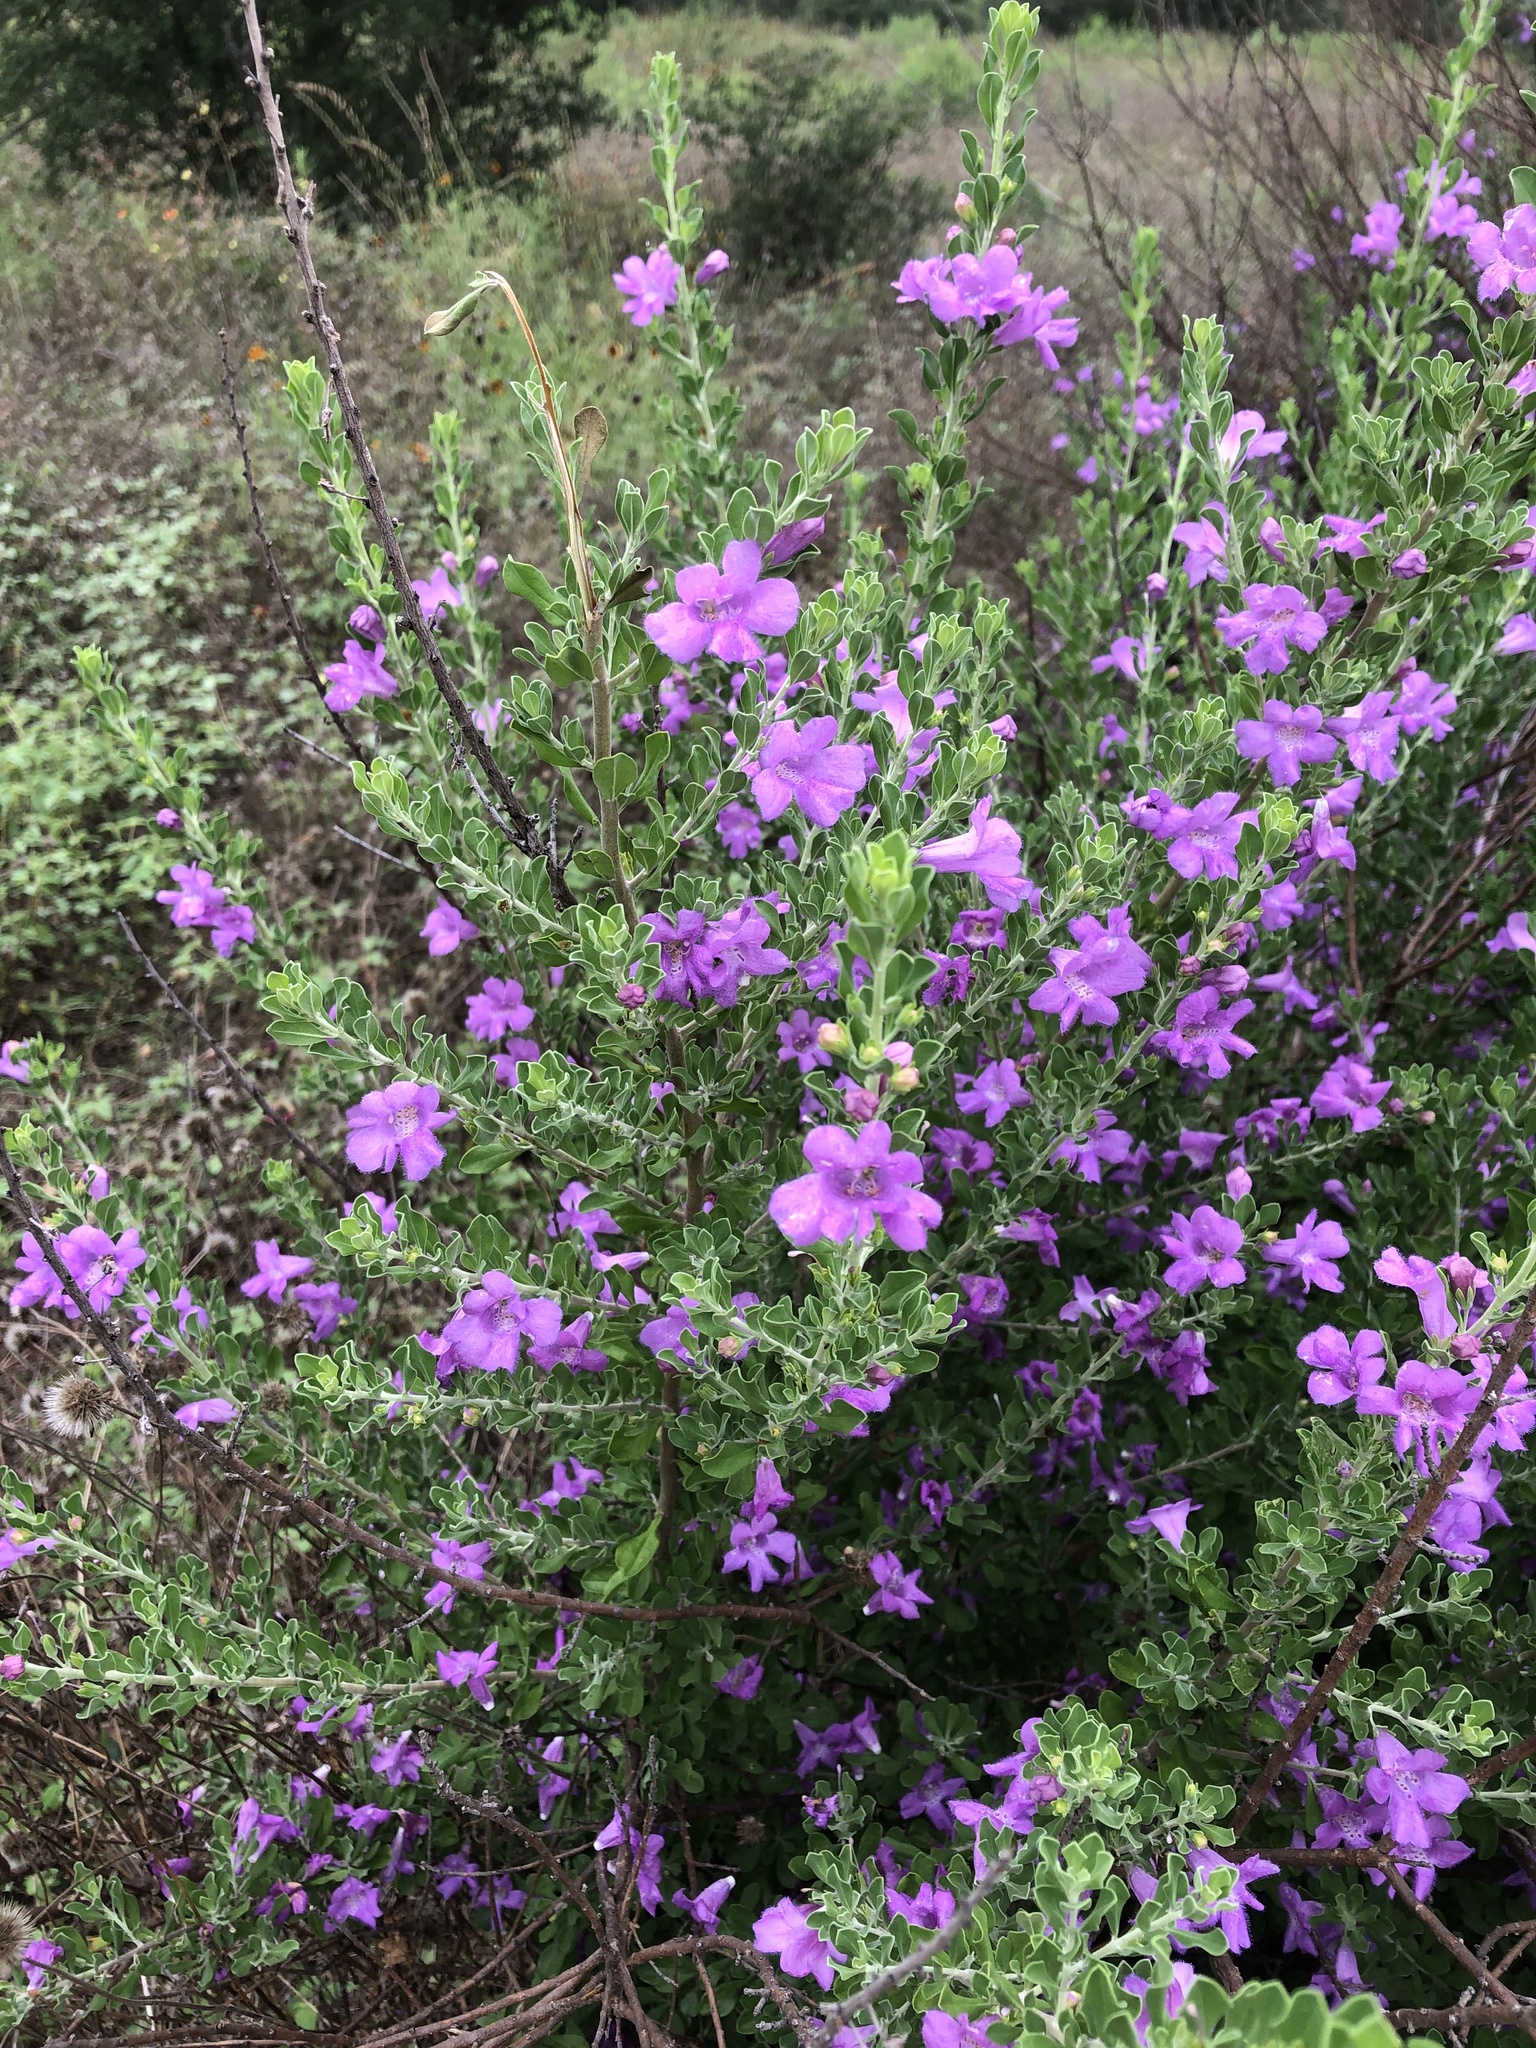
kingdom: Plantae
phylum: Tracheophyta
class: Magnoliopsida
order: Lamiales
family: Scrophulariaceae
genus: Leucophyllum
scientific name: Leucophyllum frutescens
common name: Texas silverleaf
